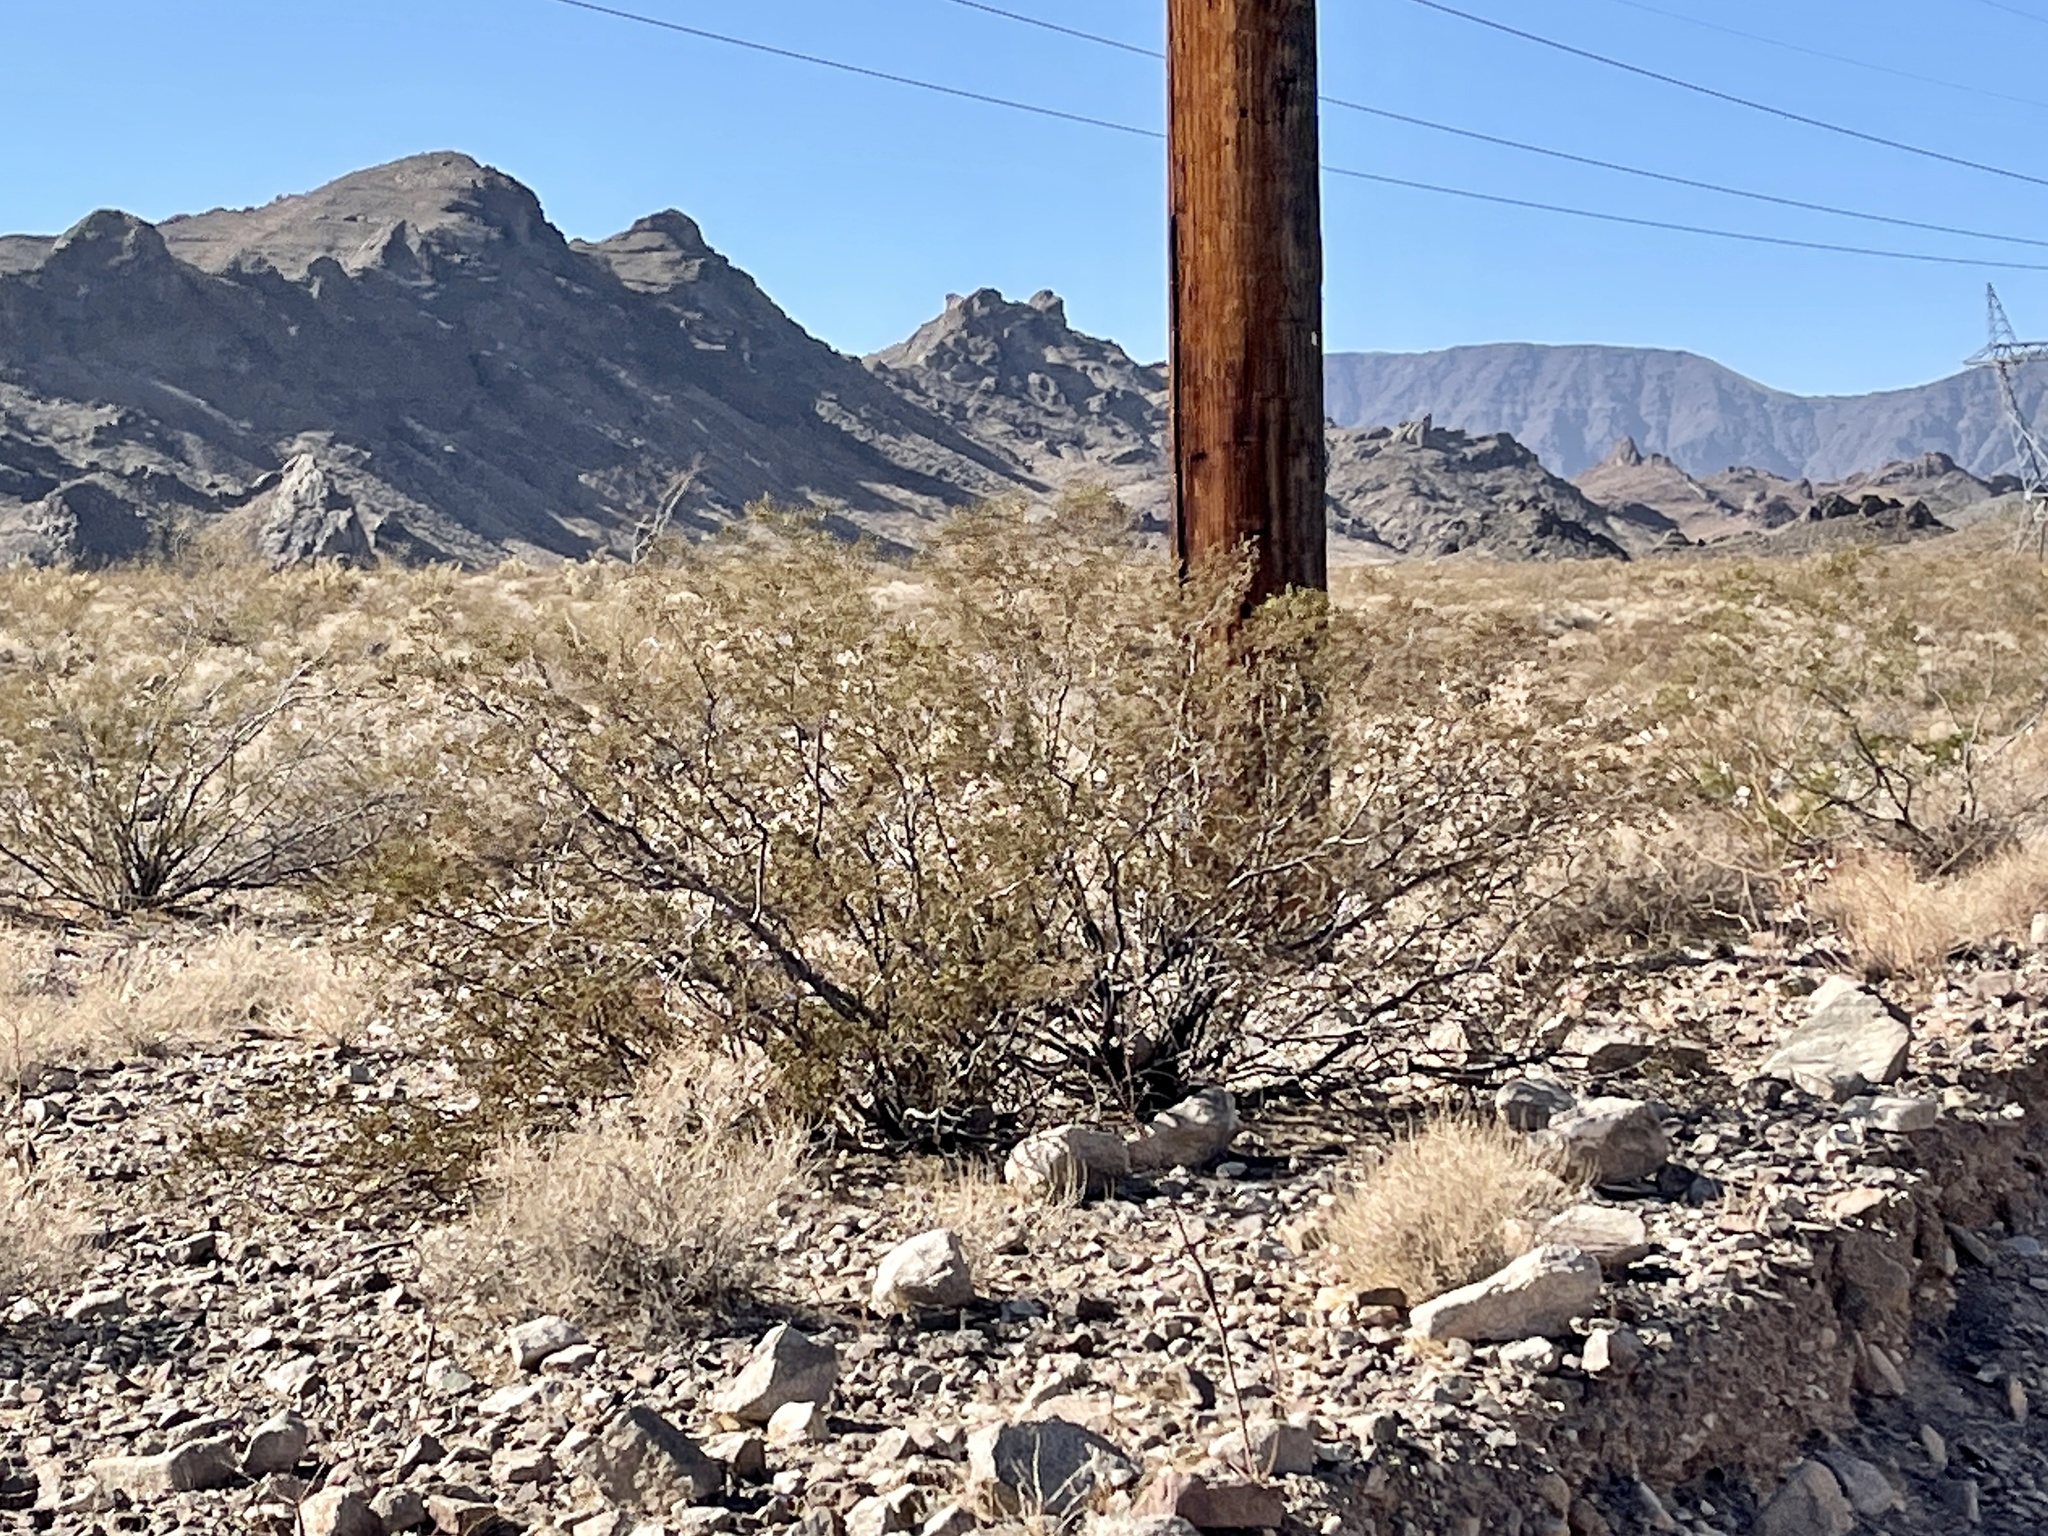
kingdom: Plantae
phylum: Tracheophyta
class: Magnoliopsida
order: Zygophyllales
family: Zygophyllaceae
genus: Larrea
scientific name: Larrea tridentata
